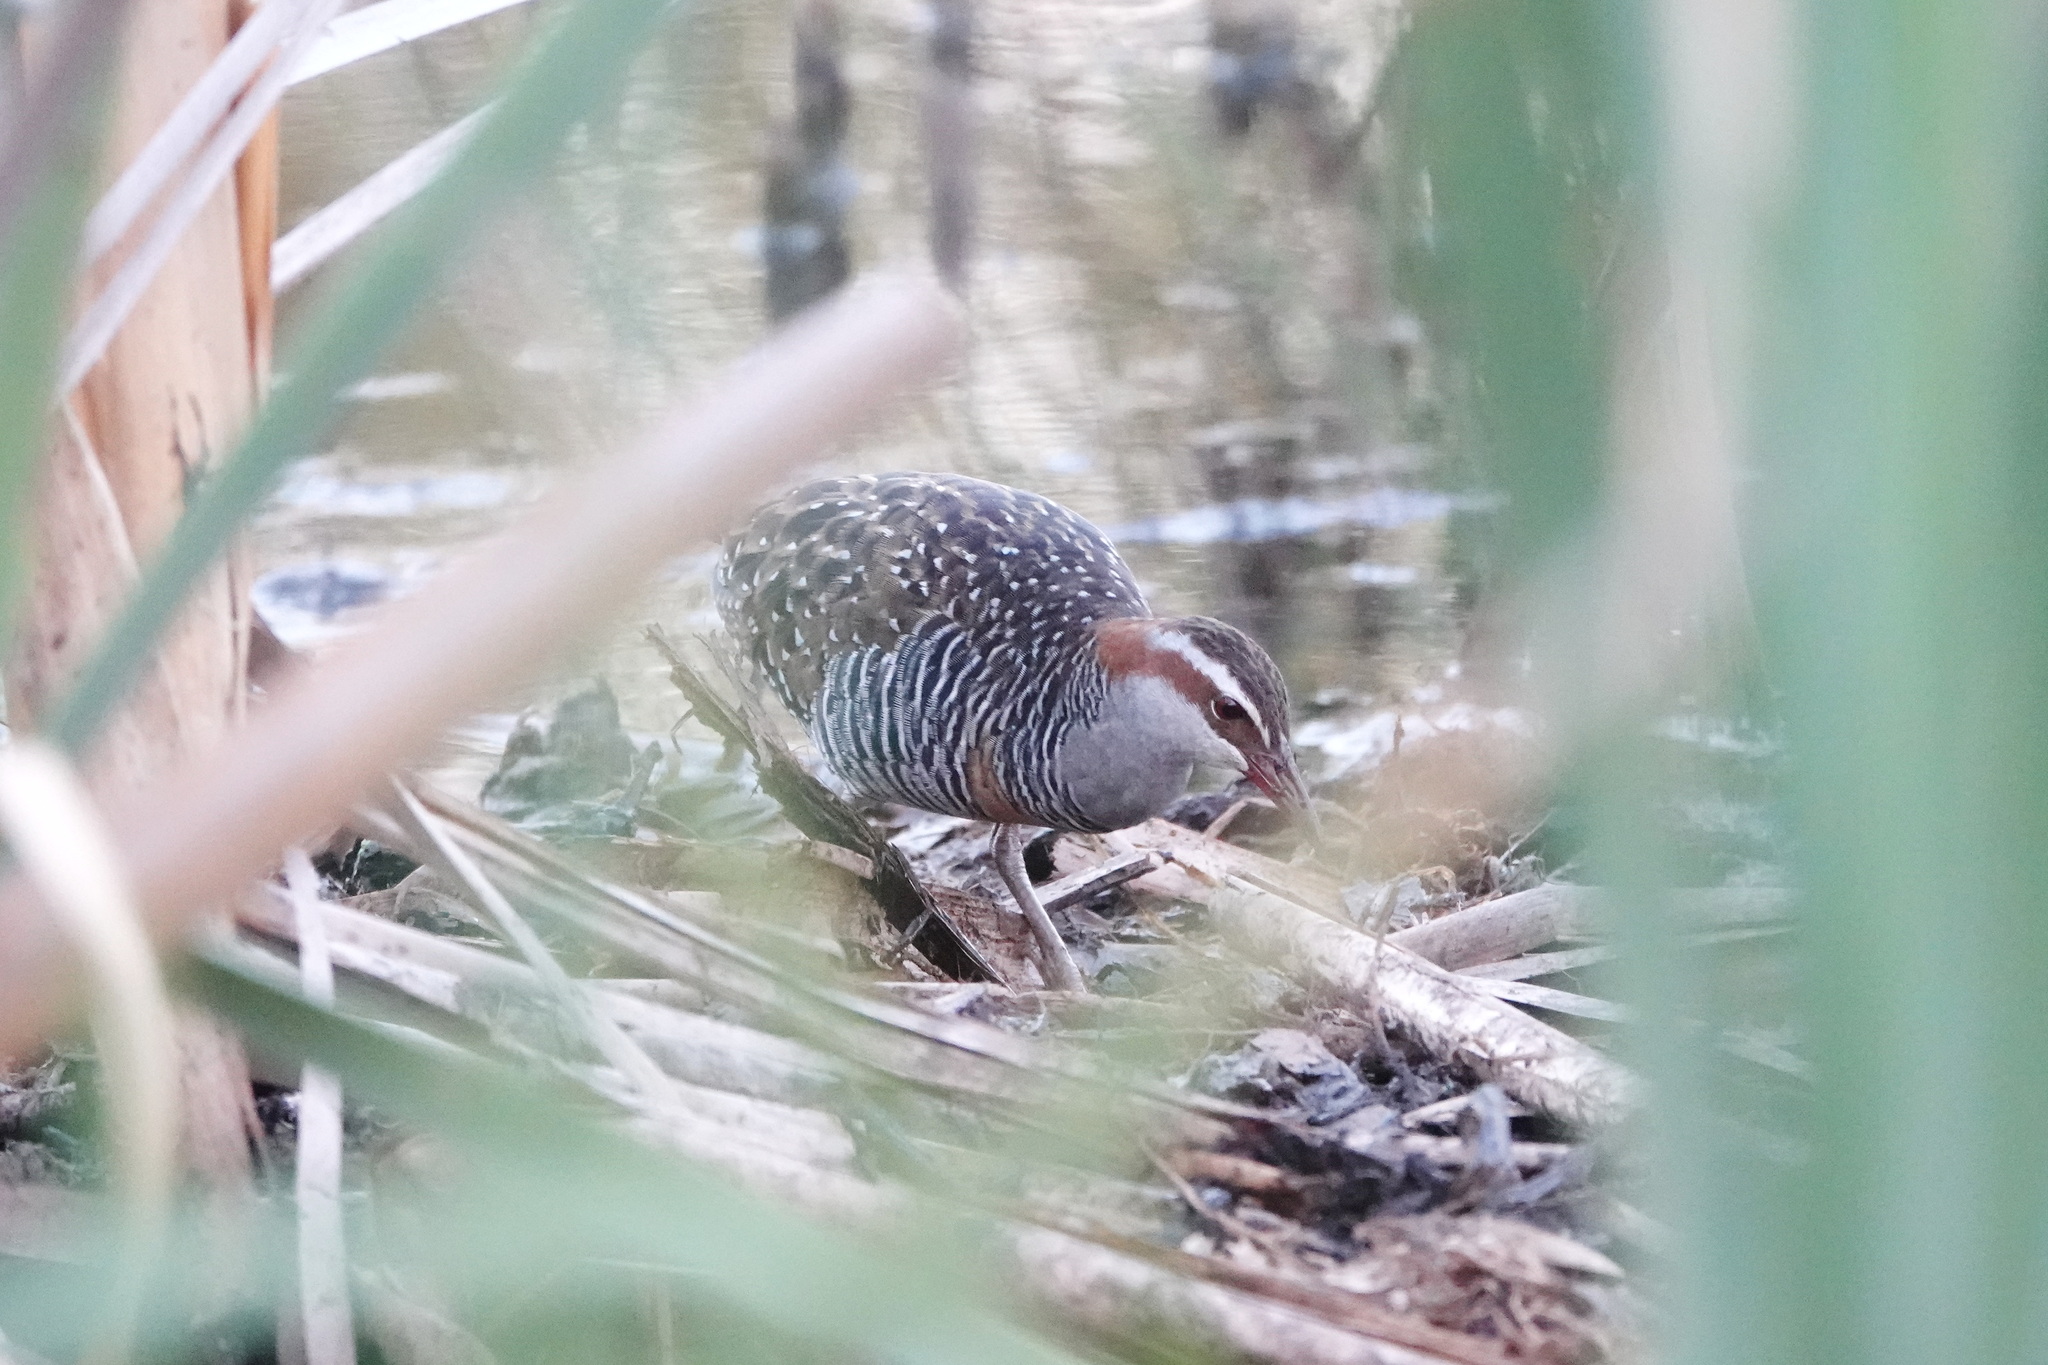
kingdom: Animalia
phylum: Chordata
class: Aves
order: Gruiformes
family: Rallidae
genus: Gallirallus
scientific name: Gallirallus philippensis
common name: Buff-banded rail
